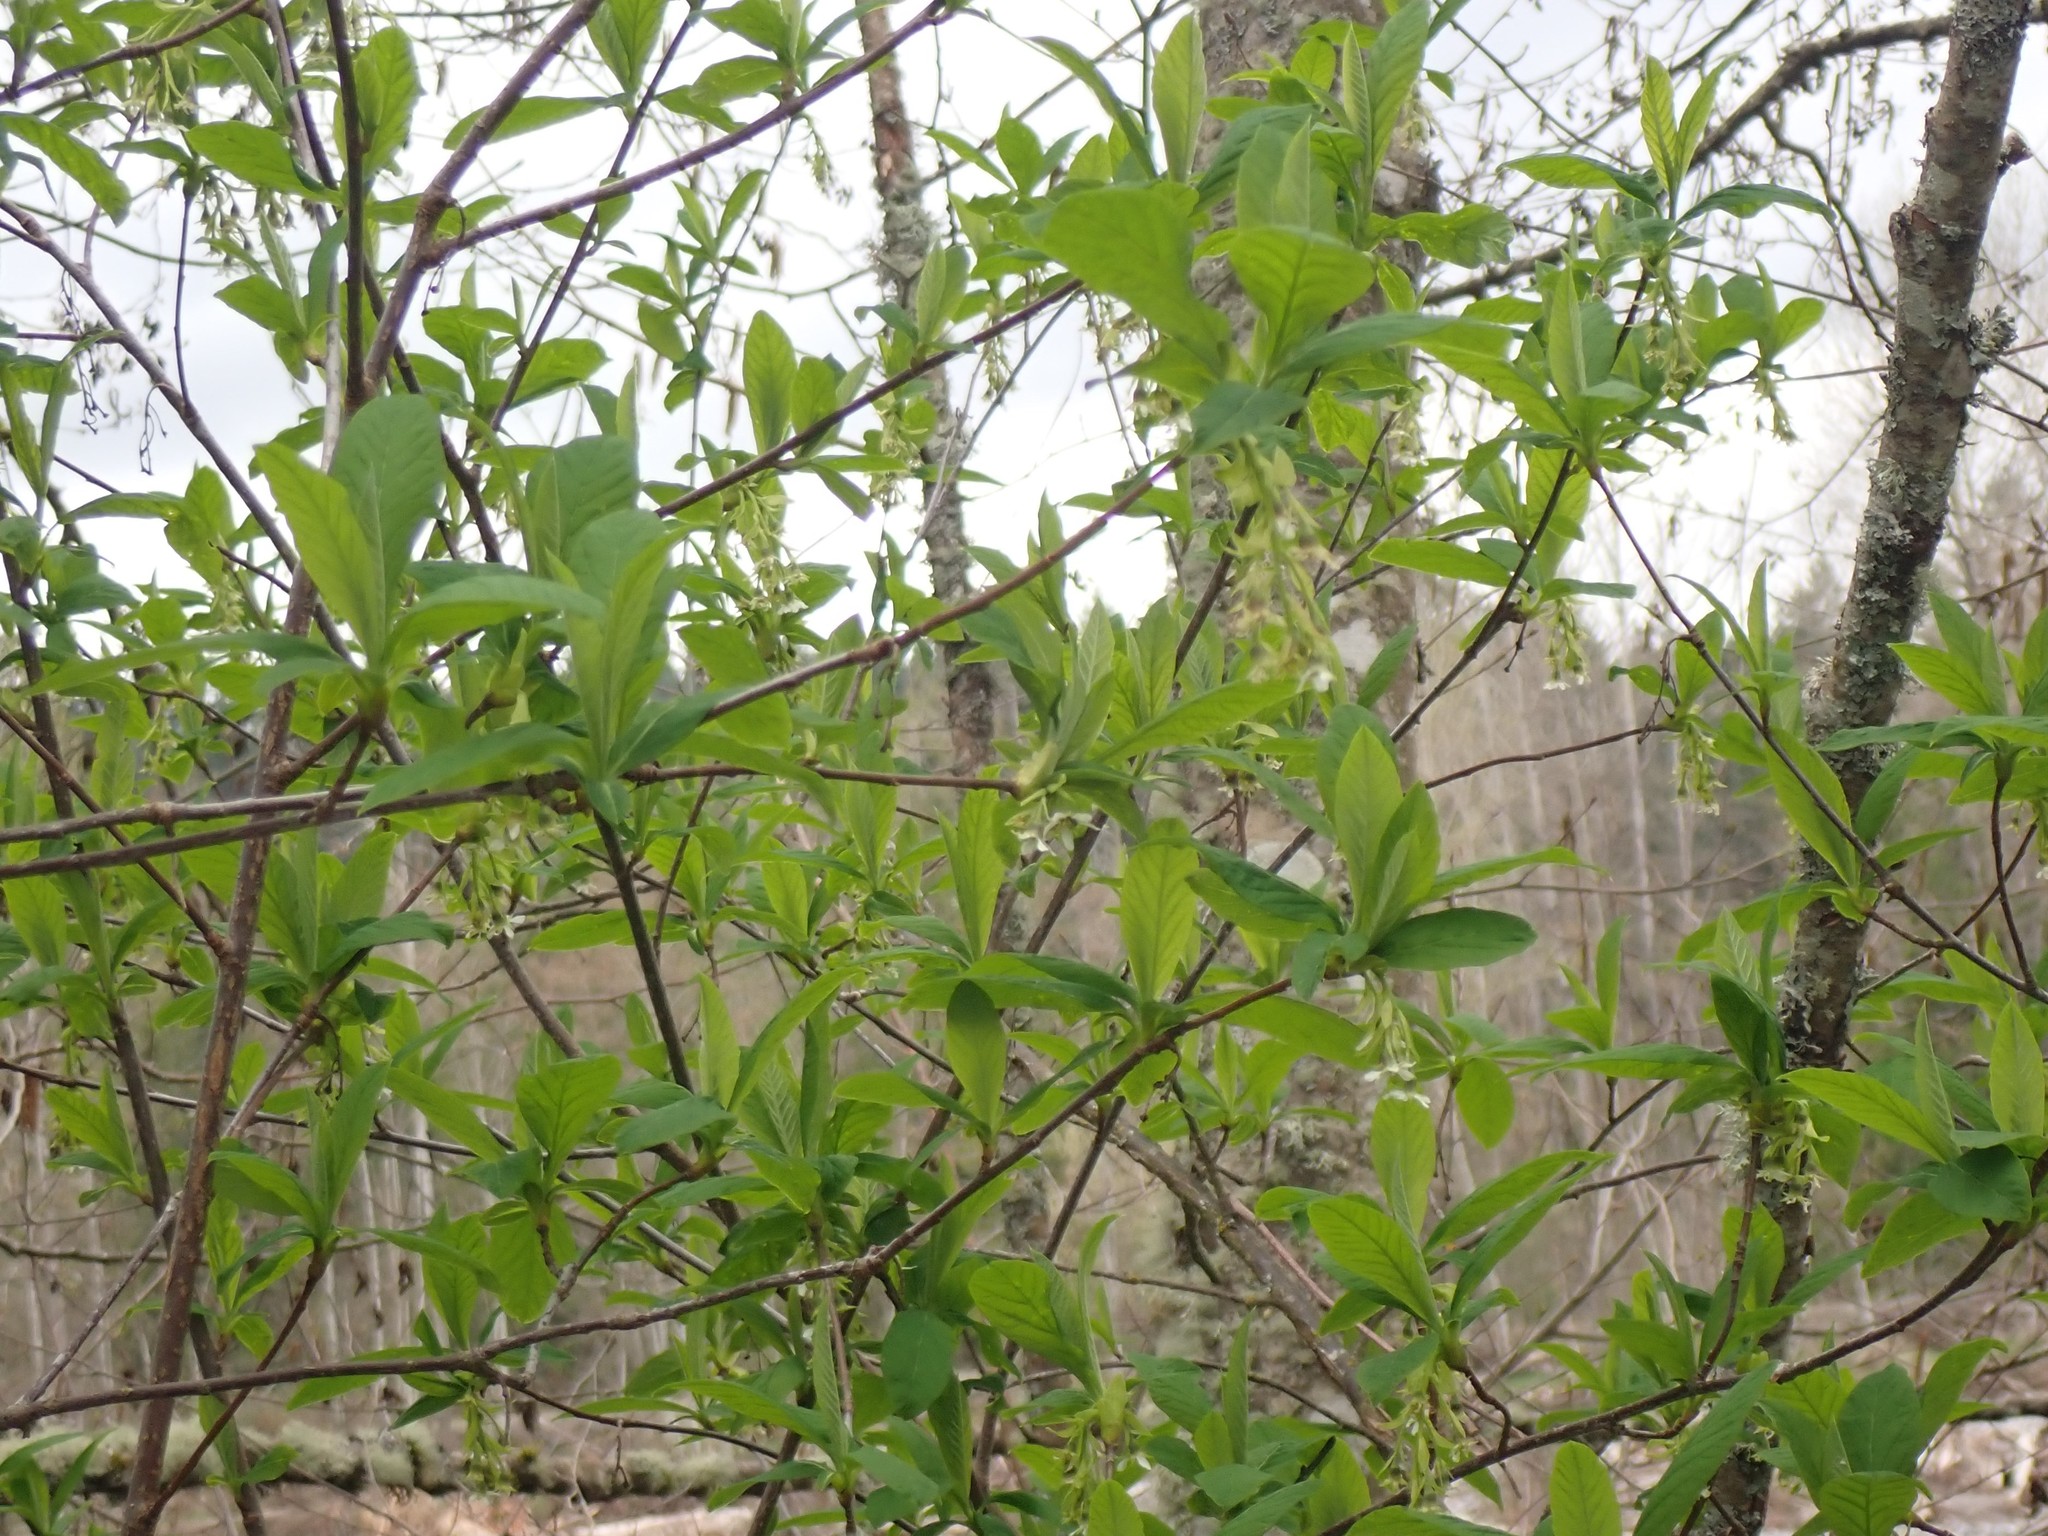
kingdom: Plantae
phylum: Tracheophyta
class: Magnoliopsida
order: Rosales
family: Rosaceae
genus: Oemleria
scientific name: Oemleria cerasiformis
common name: Osoberry
